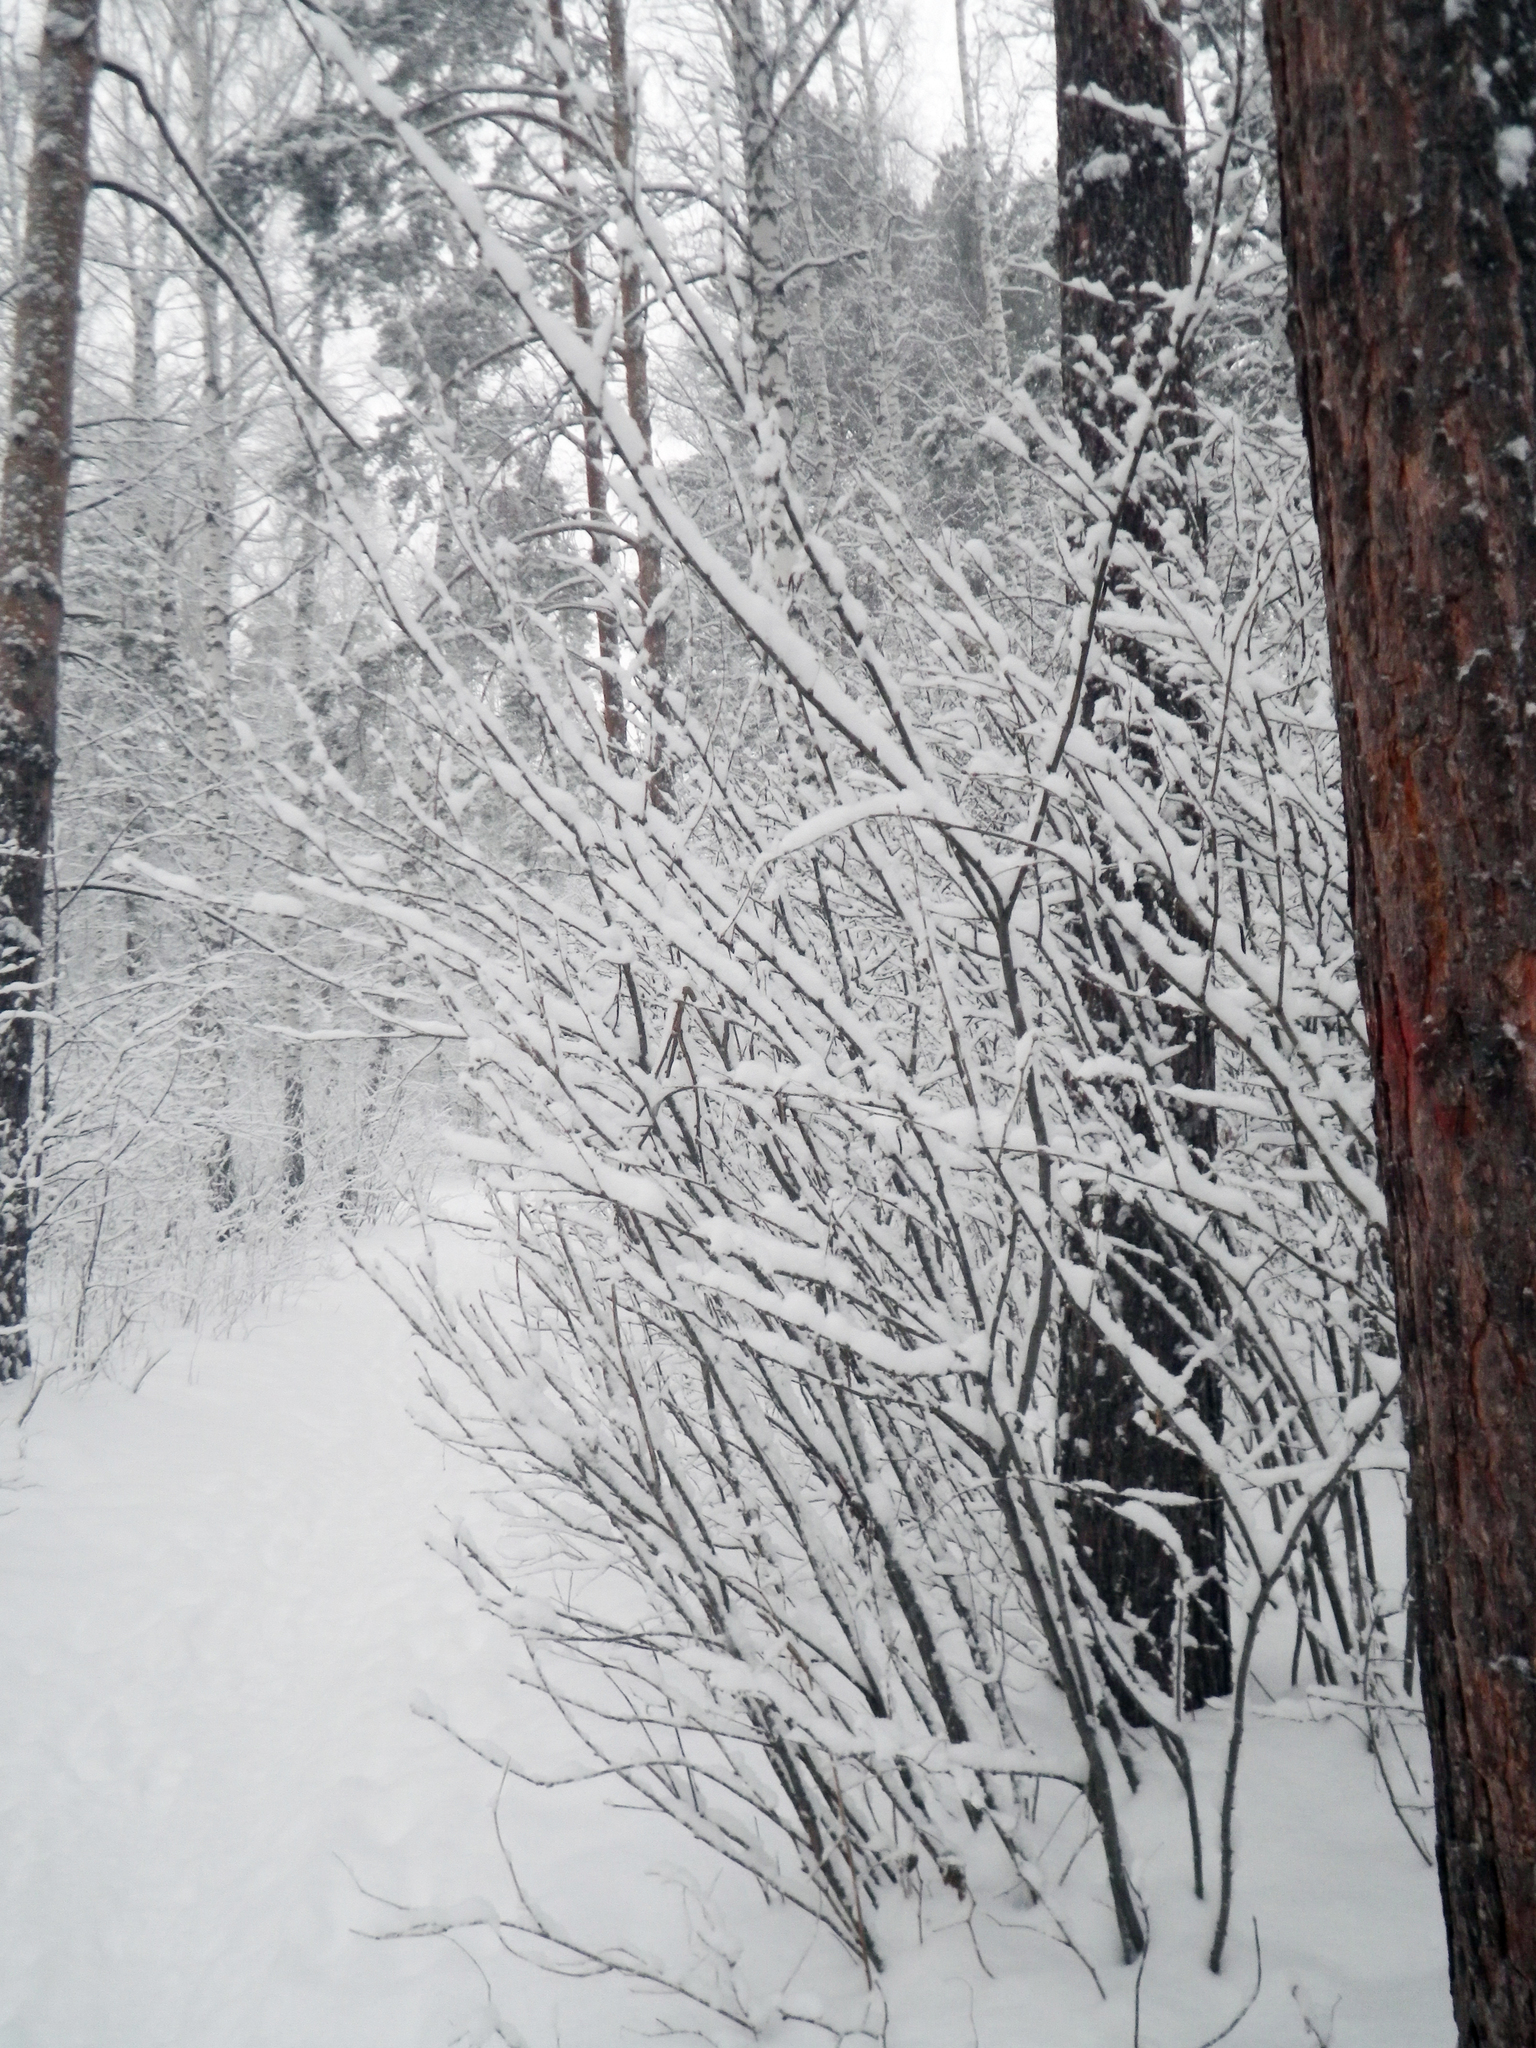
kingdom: Plantae
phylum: Tracheophyta
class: Magnoliopsida
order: Fabales
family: Fabaceae
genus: Caragana
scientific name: Caragana arborescens
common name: Siberian peashrub
